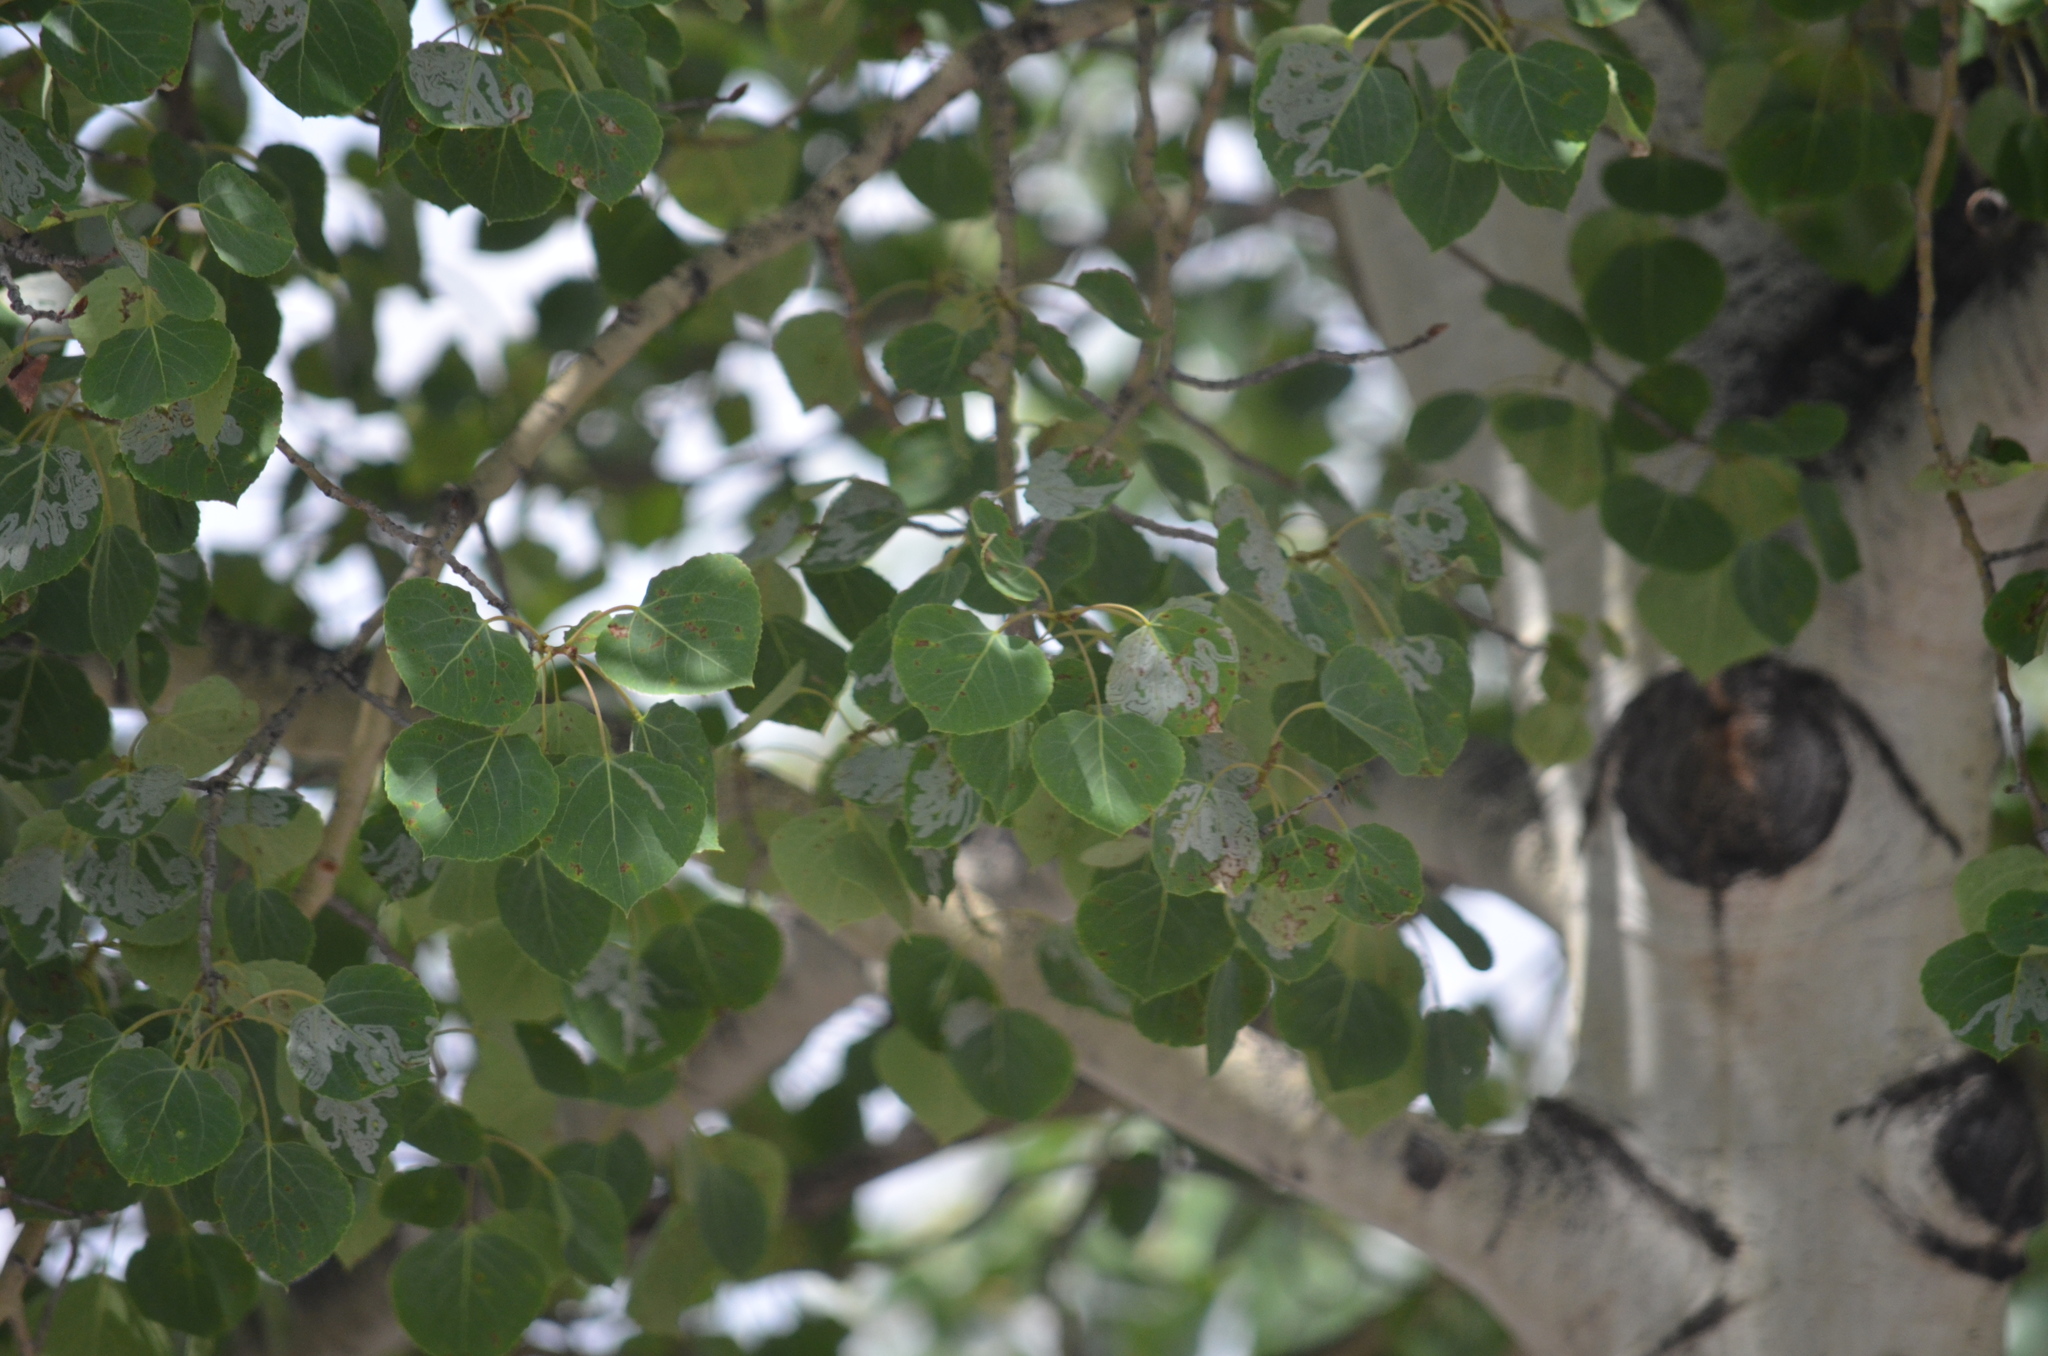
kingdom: Plantae
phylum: Tracheophyta
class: Magnoliopsida
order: Malpighiales
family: Salicaceae
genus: Populus
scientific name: Populus tremuloides
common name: Quaking aspen
